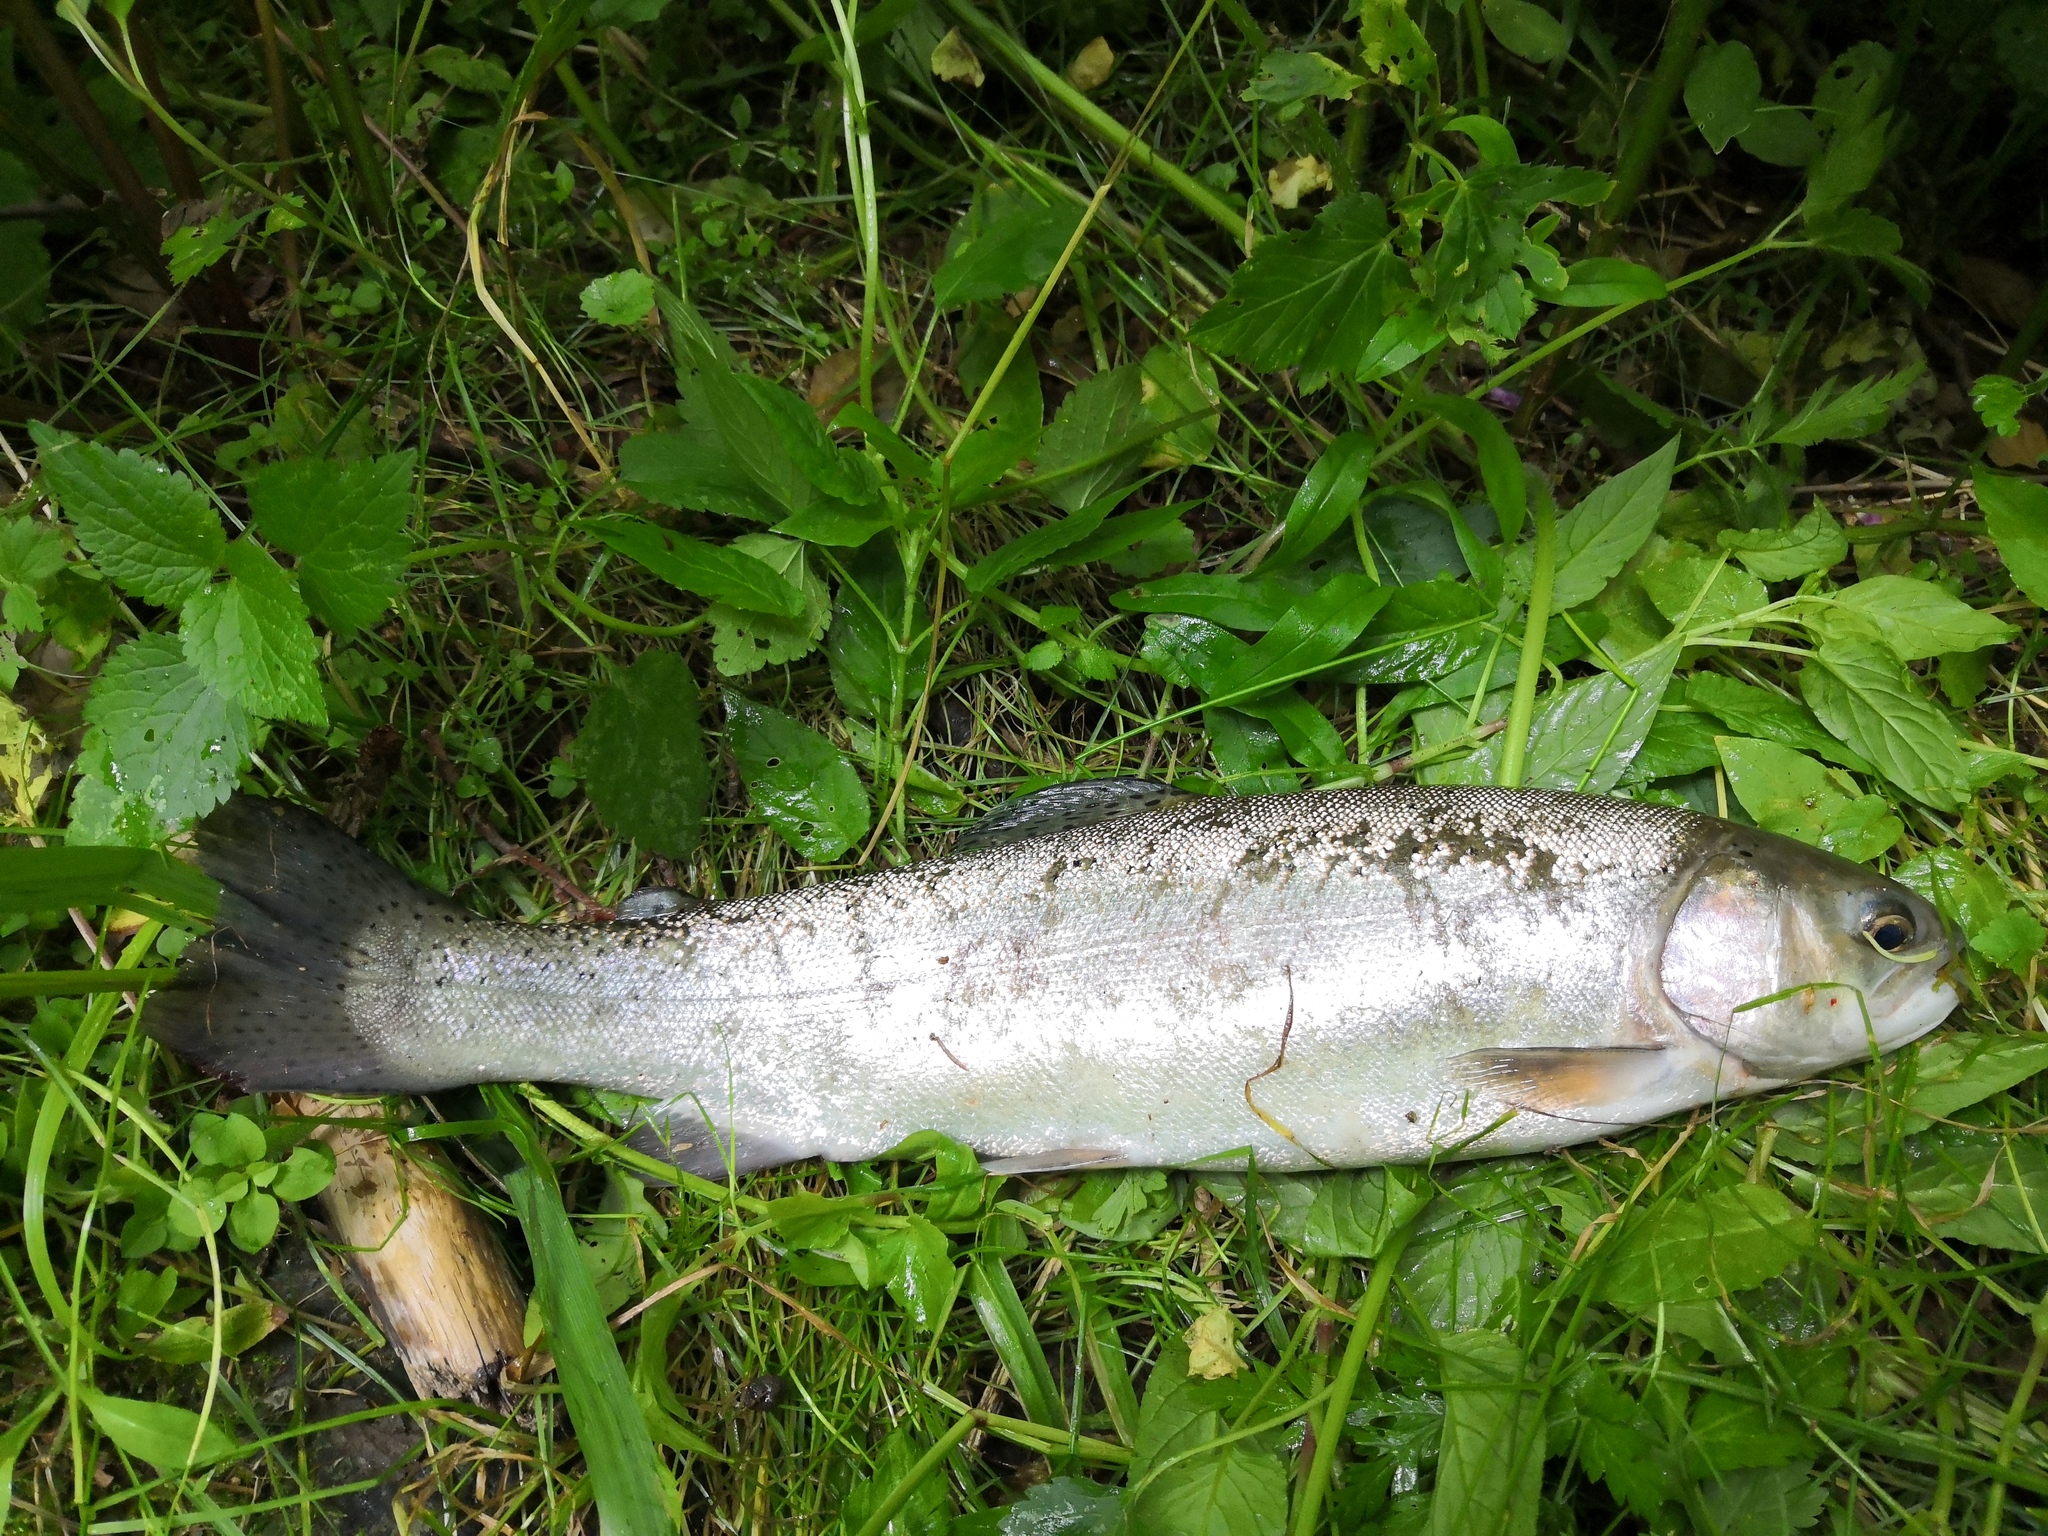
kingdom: Animalia
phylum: Chordata
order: Salmoniformes
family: Salmonidae
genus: Oncorhynchus
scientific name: Oncorhynchus mykiss
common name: Rainbow trout
